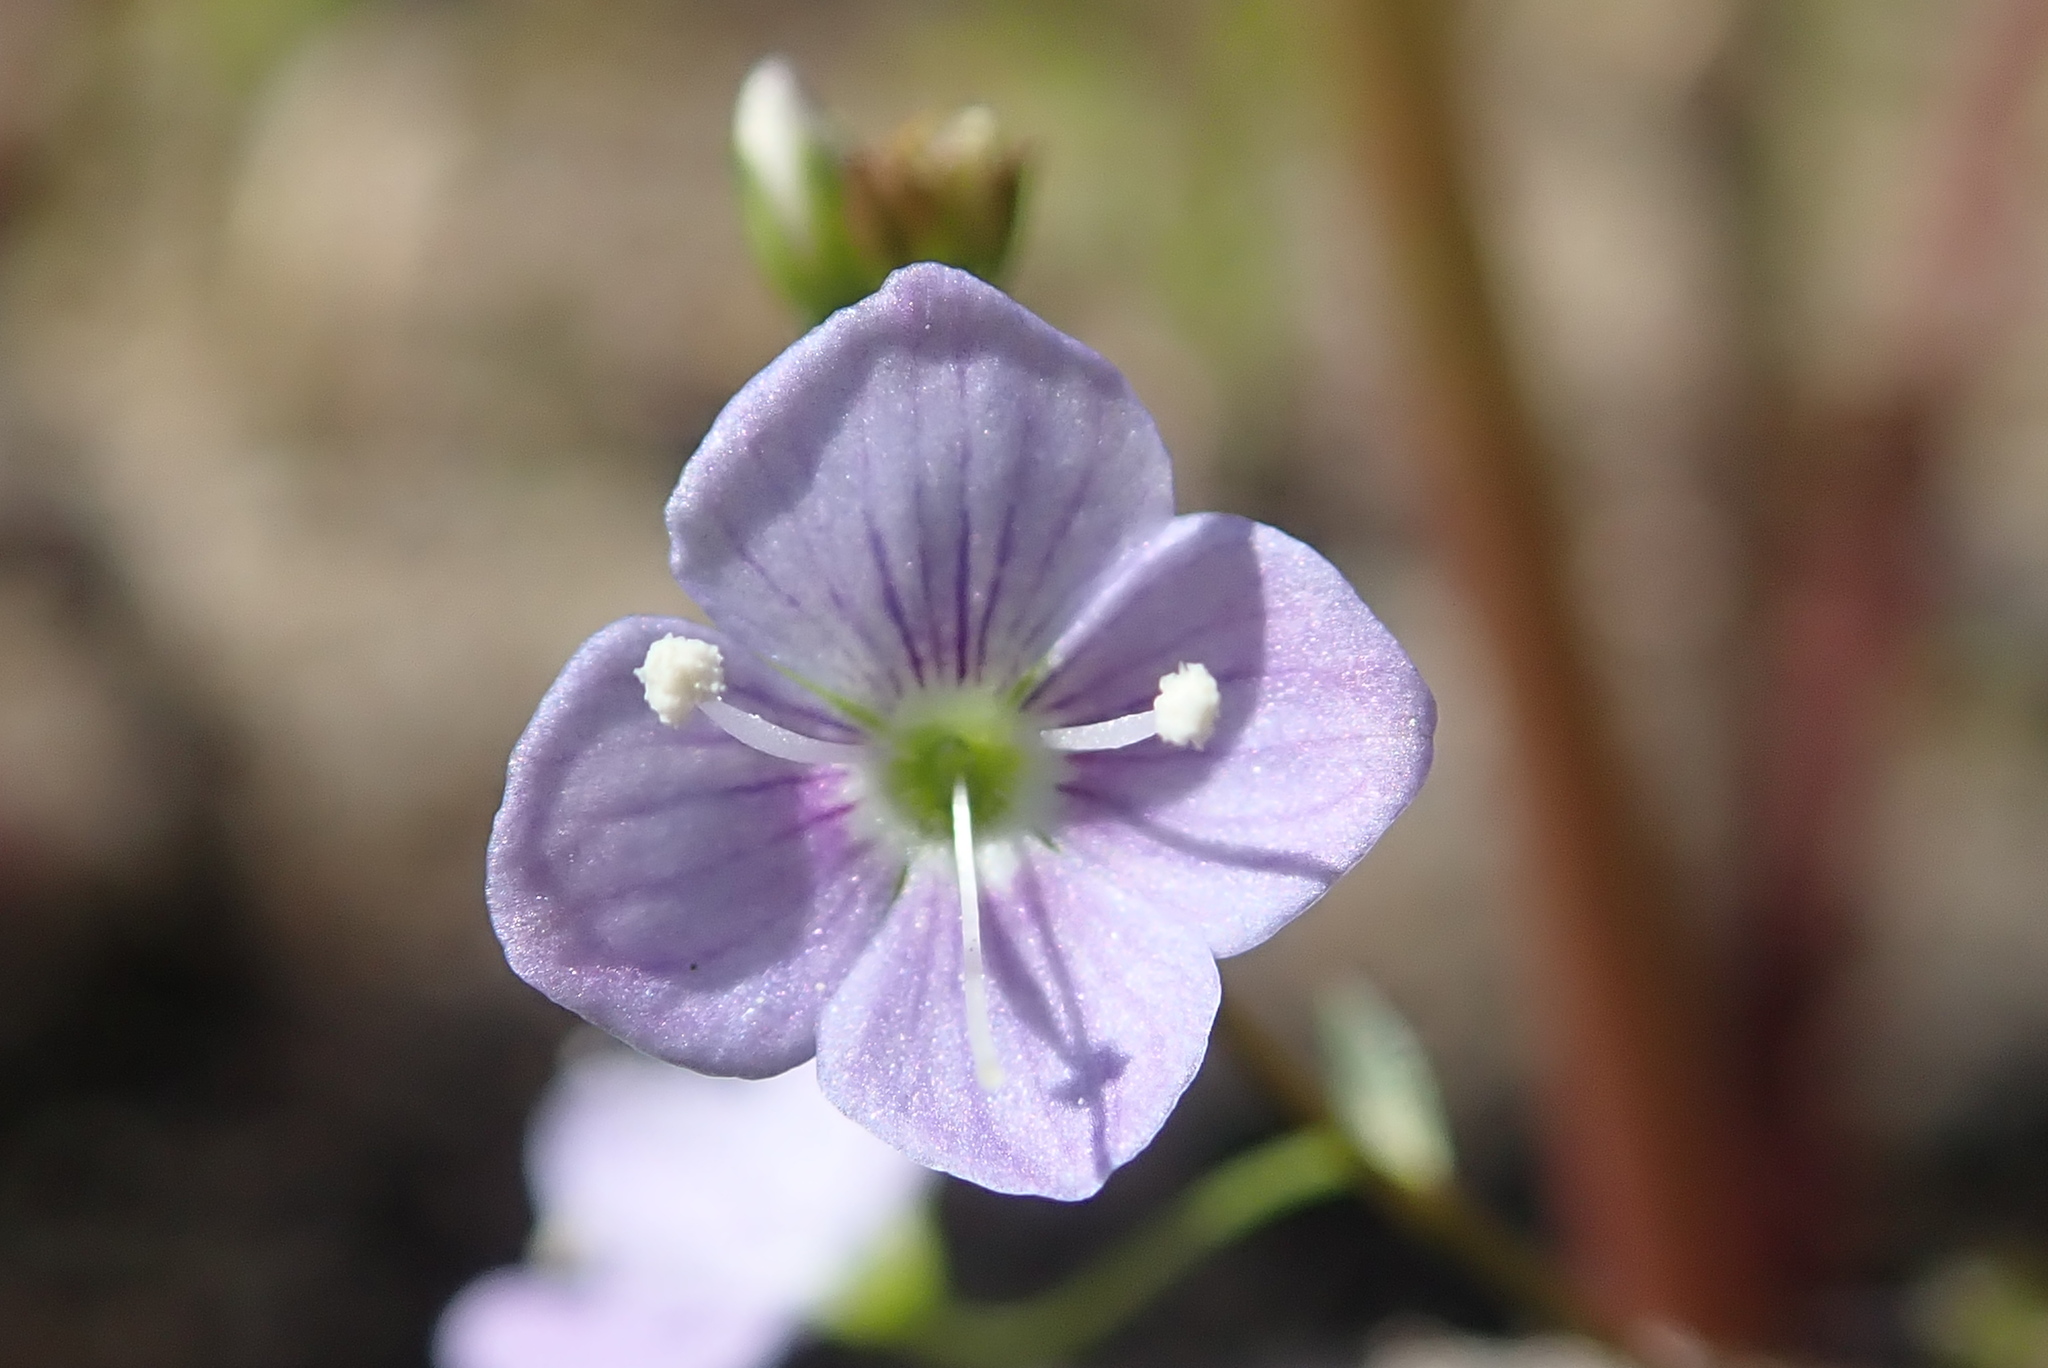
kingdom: Plantae
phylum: Tracheophyta
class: Magnoliopsida
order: Lamiales
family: Plantaginaceae
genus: Veronica
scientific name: Veronica scutellata
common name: Marsh speedwell
